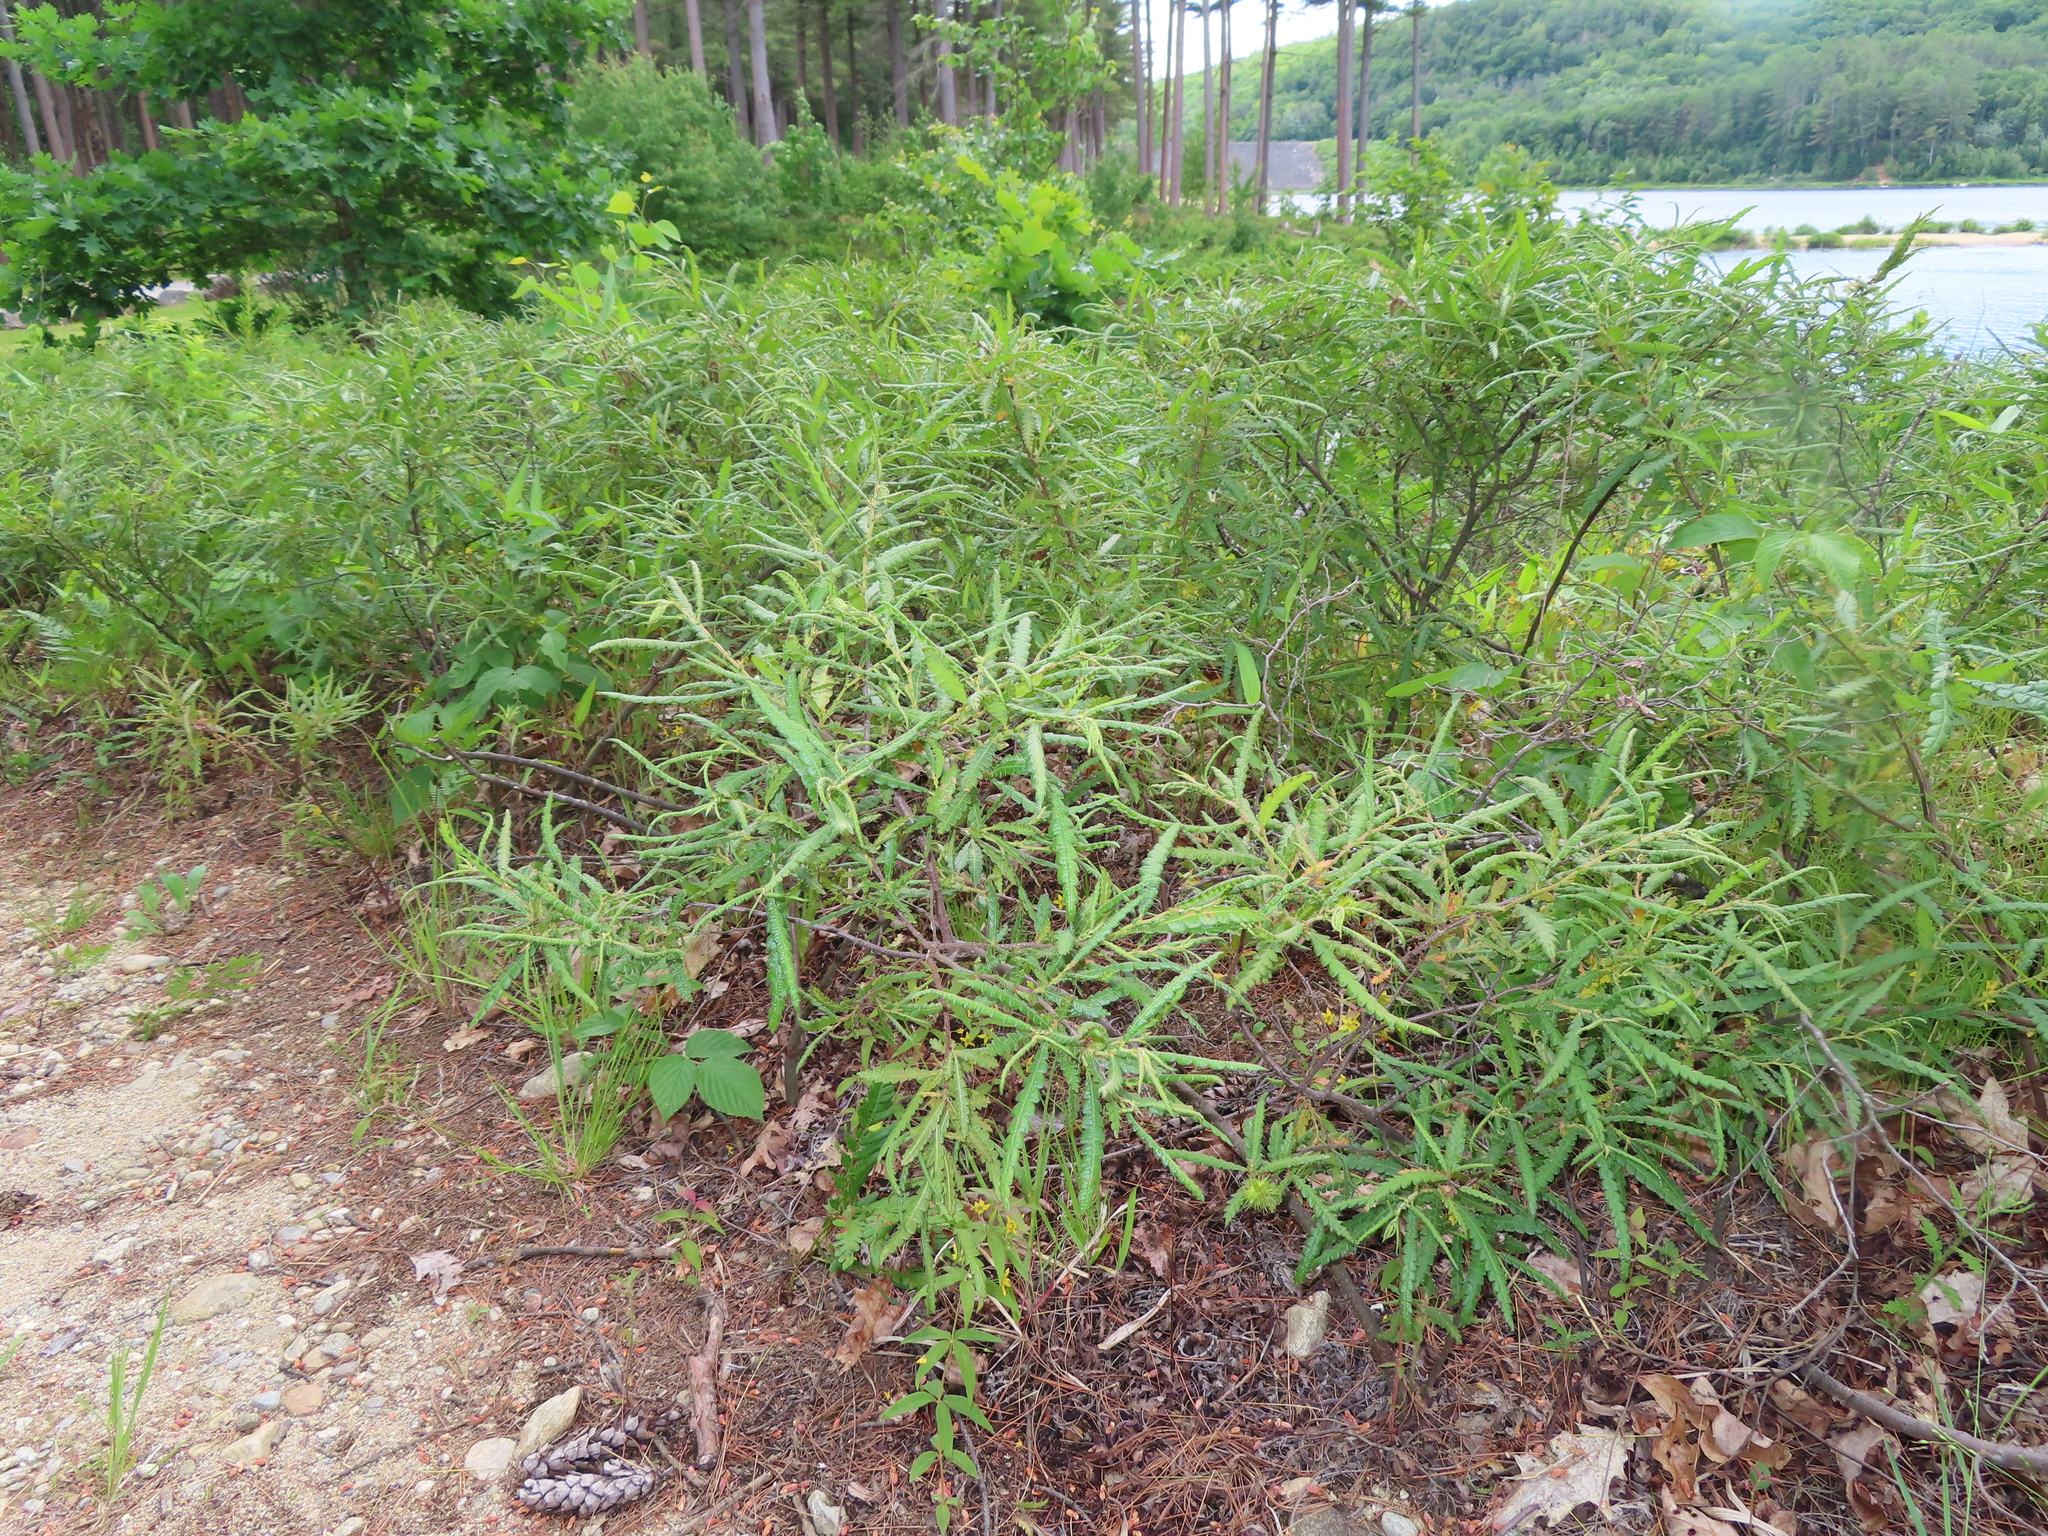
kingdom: Plantae
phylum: Tracheophyta
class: Magnoliopsida
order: Fagales
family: Myricaceae
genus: Comptonia
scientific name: Comptonia peregrina
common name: Sweet-fern
